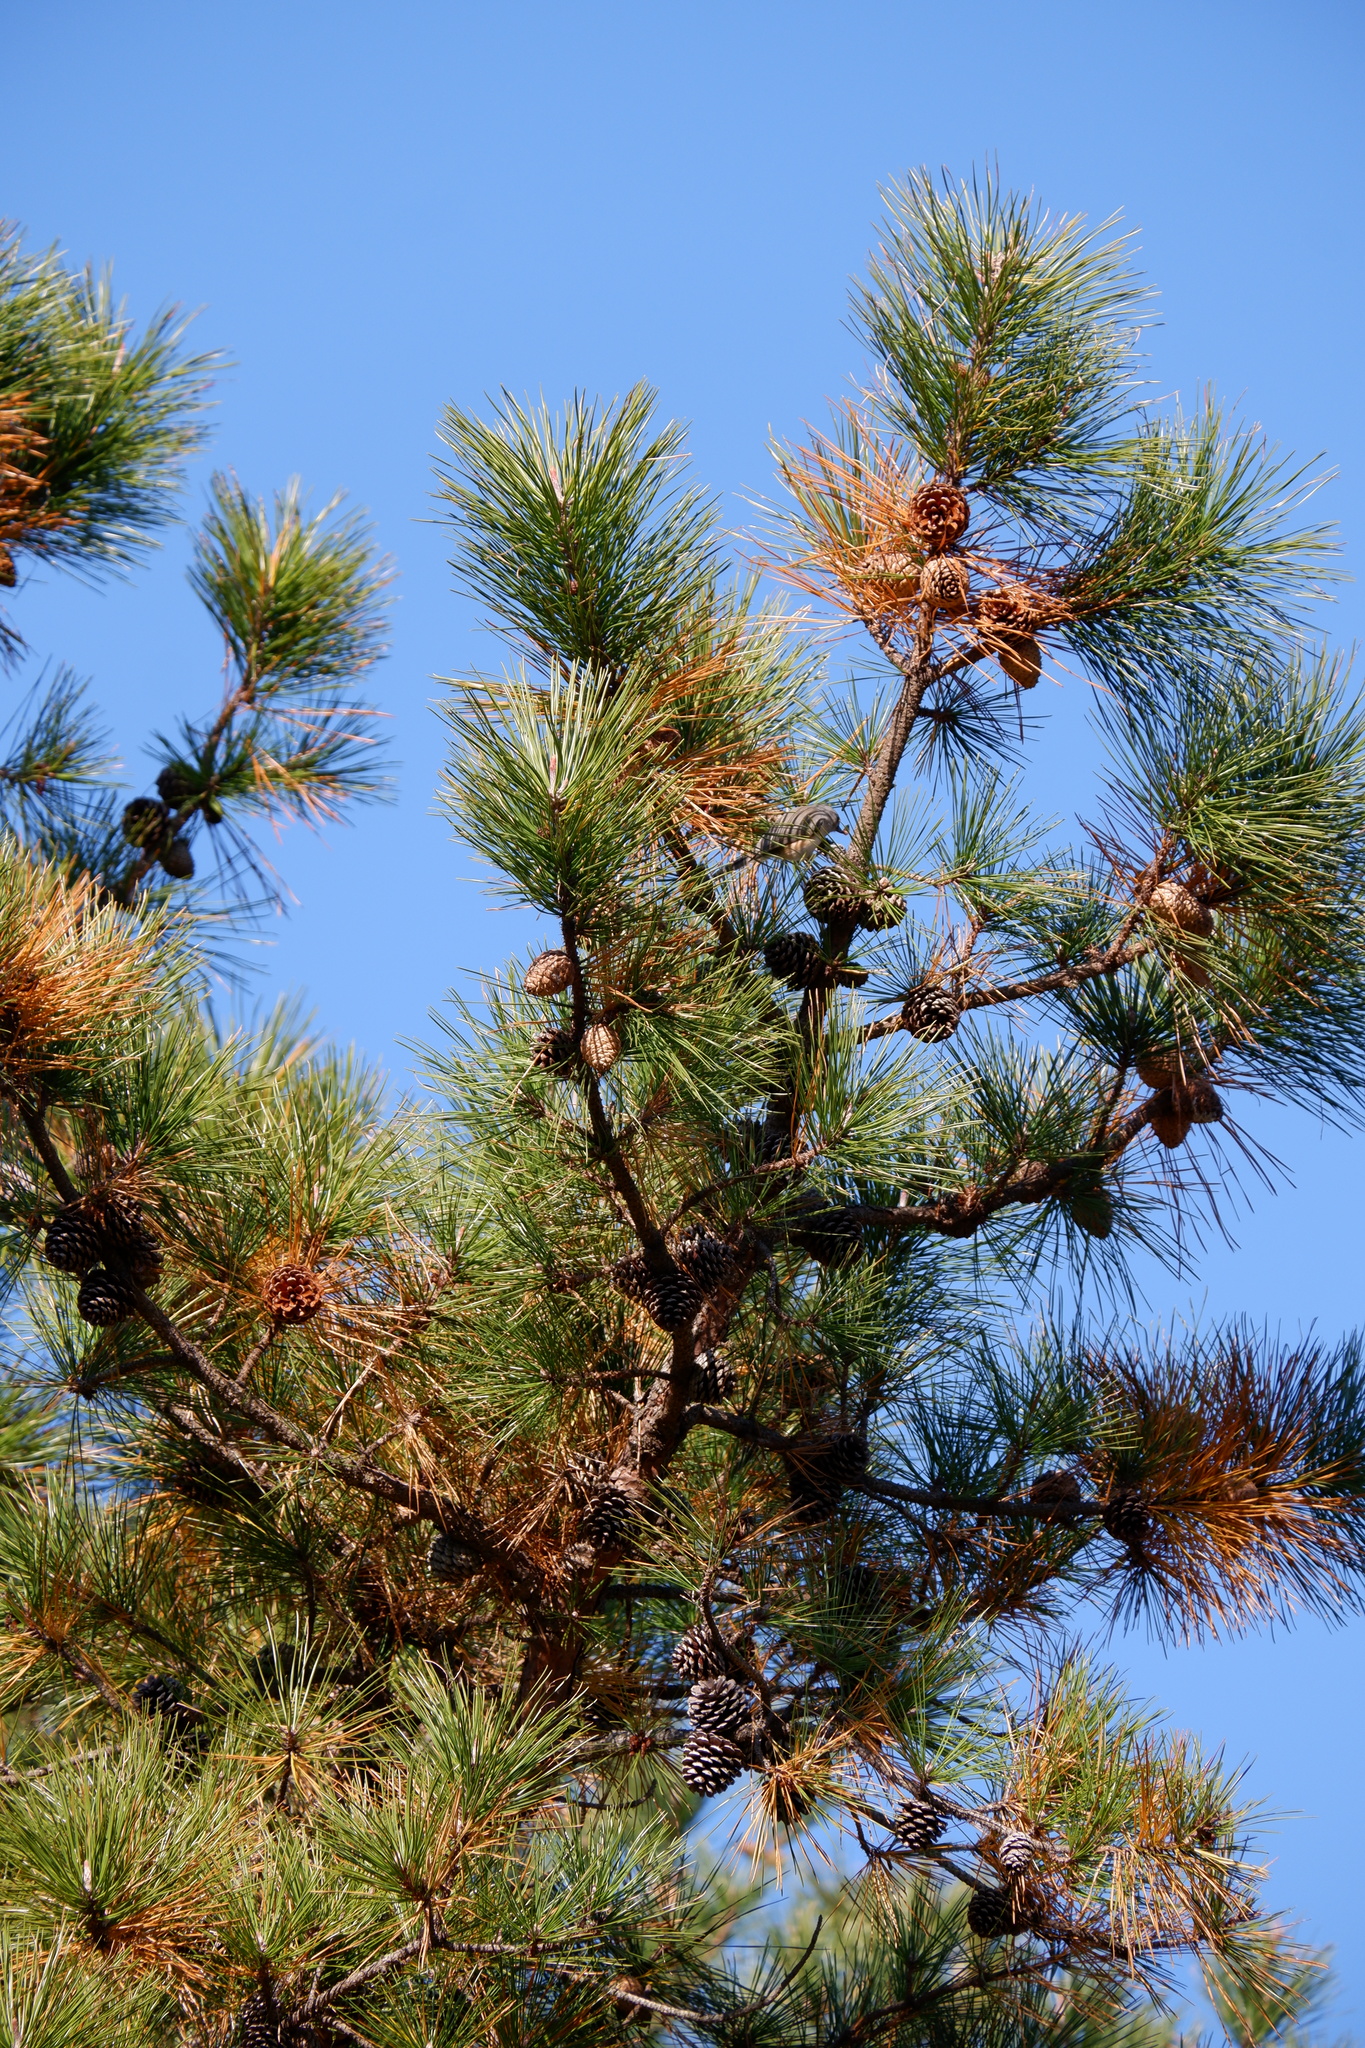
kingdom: Animalia
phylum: Chordata
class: Aves
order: Passeriformes
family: Paridae
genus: Baeolophus
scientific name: Baeolophus bicolor
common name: Tufted titmouse
